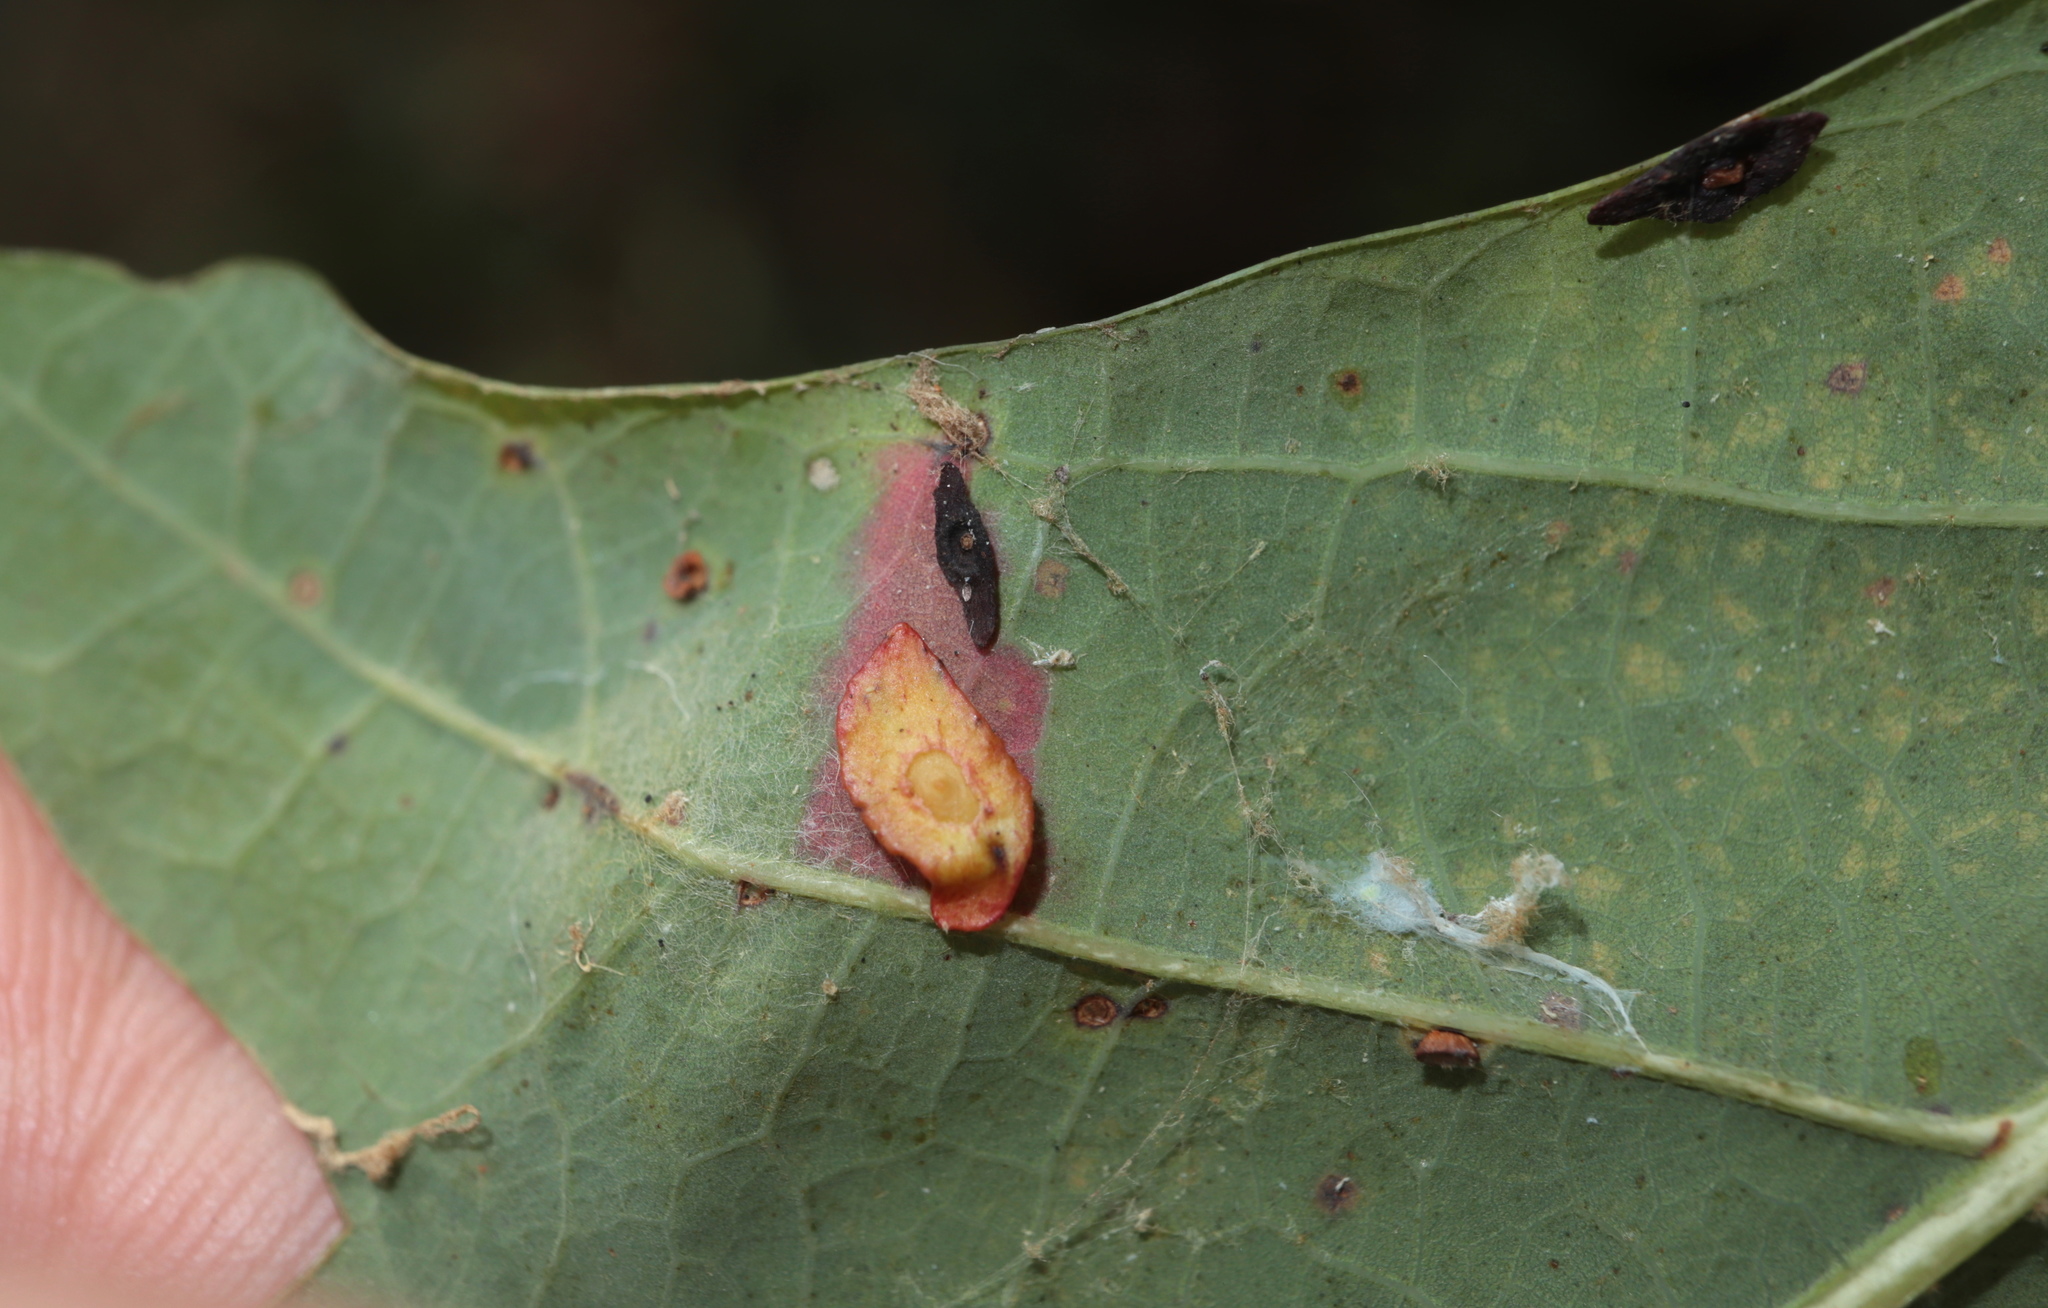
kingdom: Animalia
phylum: Arthropoda
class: Insecta
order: Hymenoptera
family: Cynipidae
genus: Phylloteras
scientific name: Phylloteras
